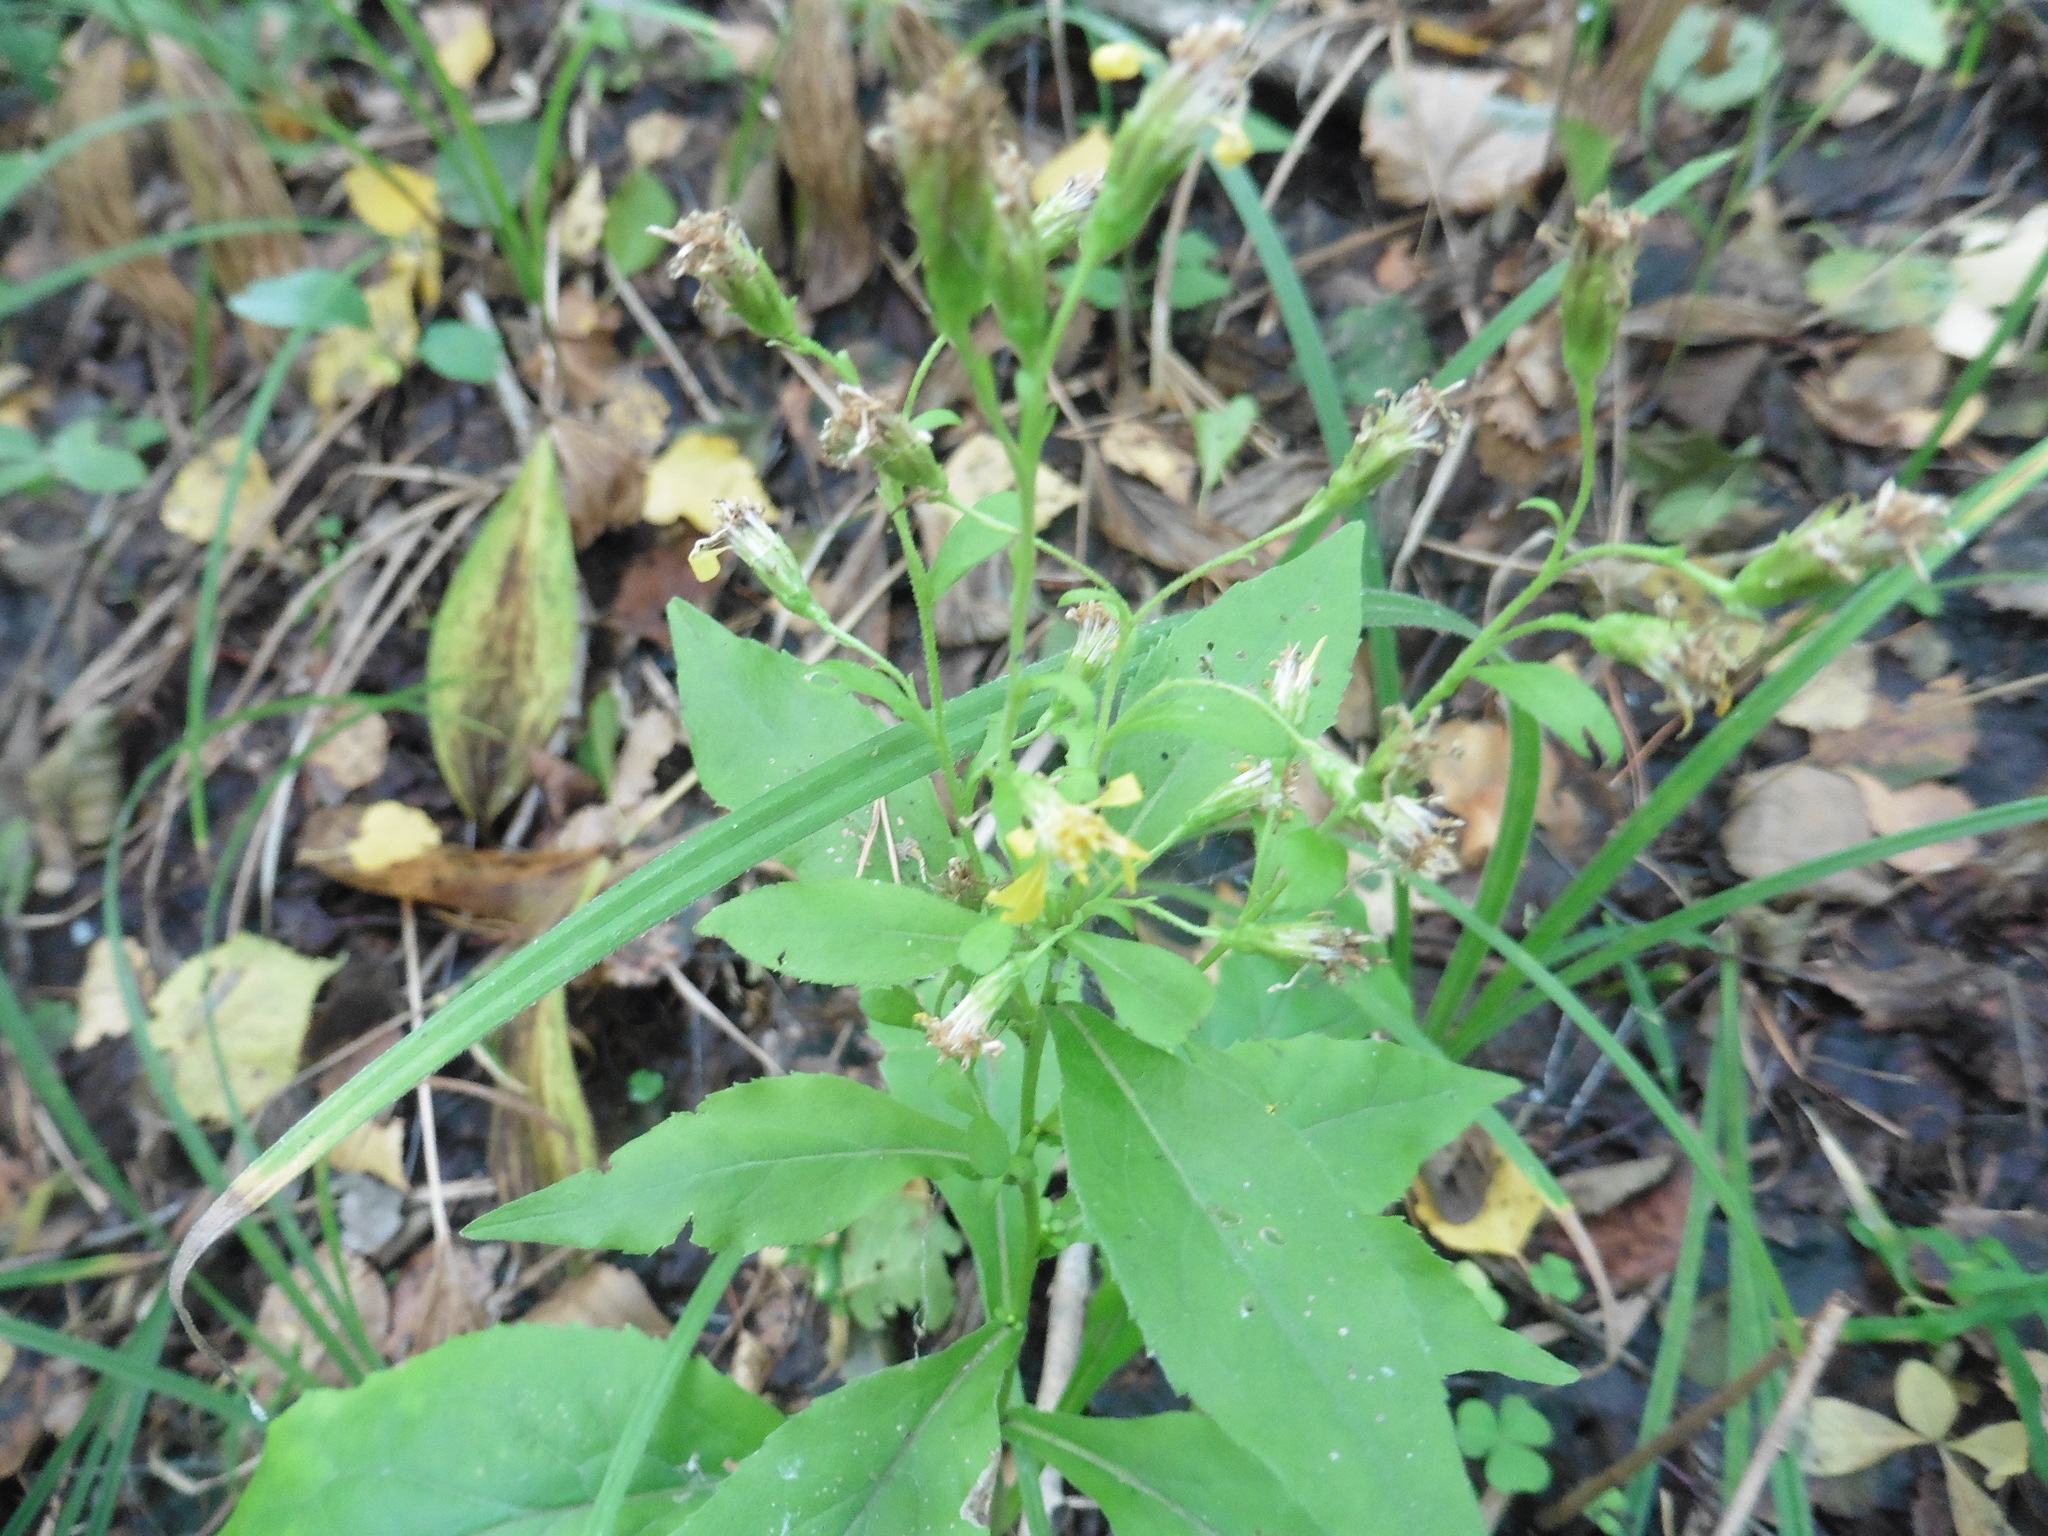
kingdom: Plantae
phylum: Tracheophyta
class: Magnoliopsida
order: Asterales
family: Asteraceae
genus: Solidago
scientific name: Solidago virgaurea
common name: Goldenrod
